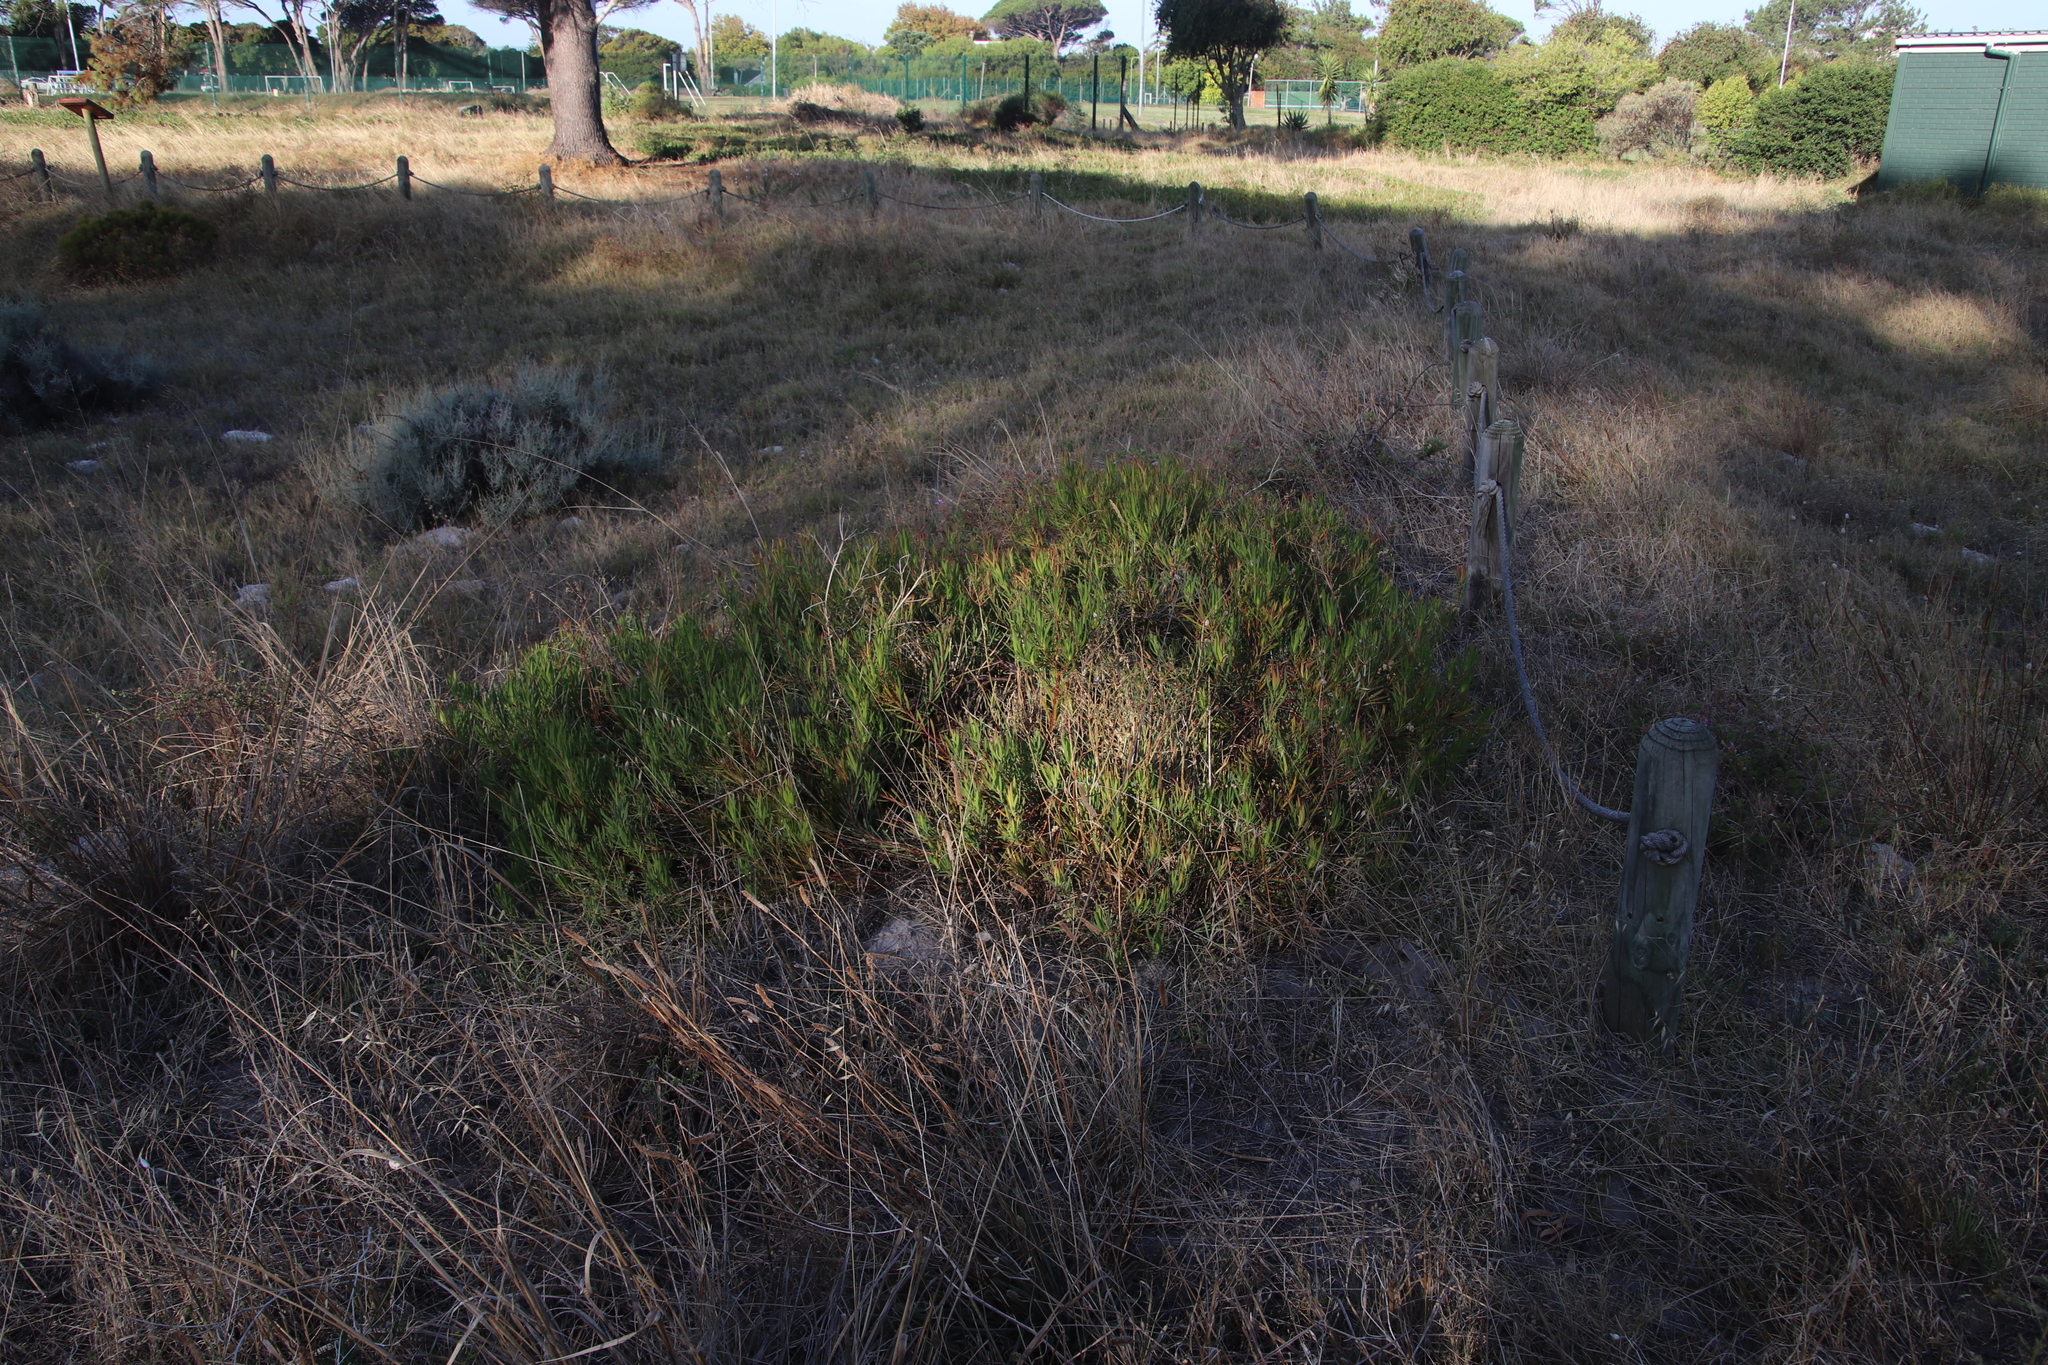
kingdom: Plantae
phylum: Tracheophyta
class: Magnoliopsida
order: Proteales
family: Proteaceae
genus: Leucadendron
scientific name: Leucadendron salignum
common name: Common sunshine conebush
